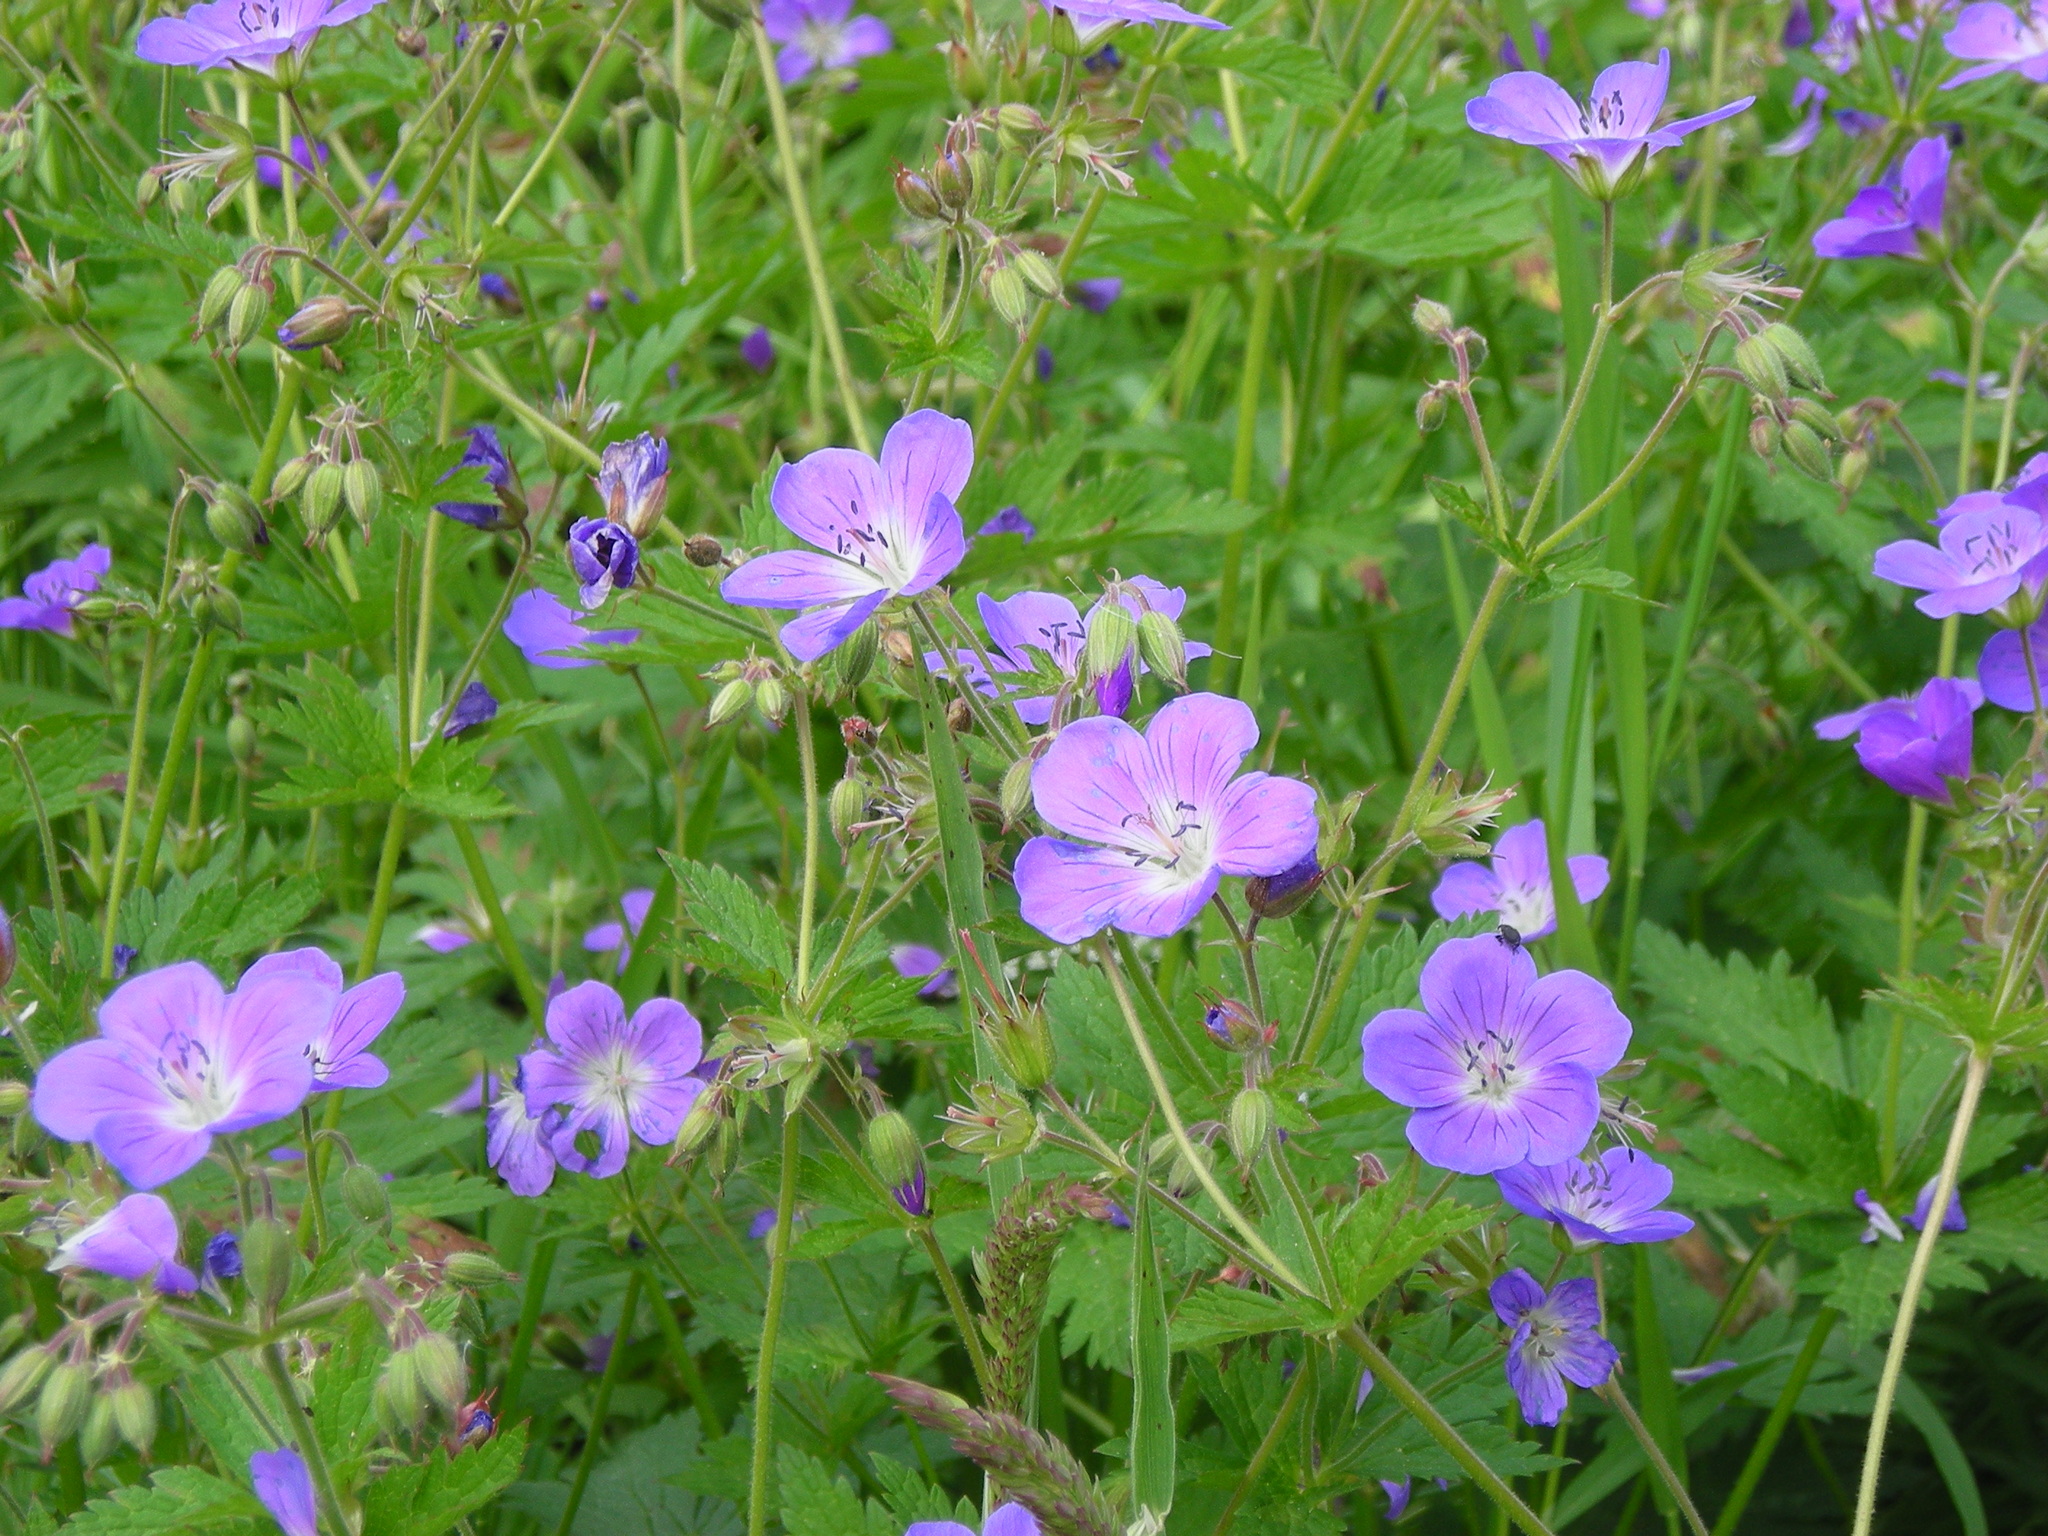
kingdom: Plantae
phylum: Tracheophyta
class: Magnoliopsida
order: Geraniales
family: Geraniaceae
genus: Geranium
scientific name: Geranium sylvaticum
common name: Wood crane's-bill
